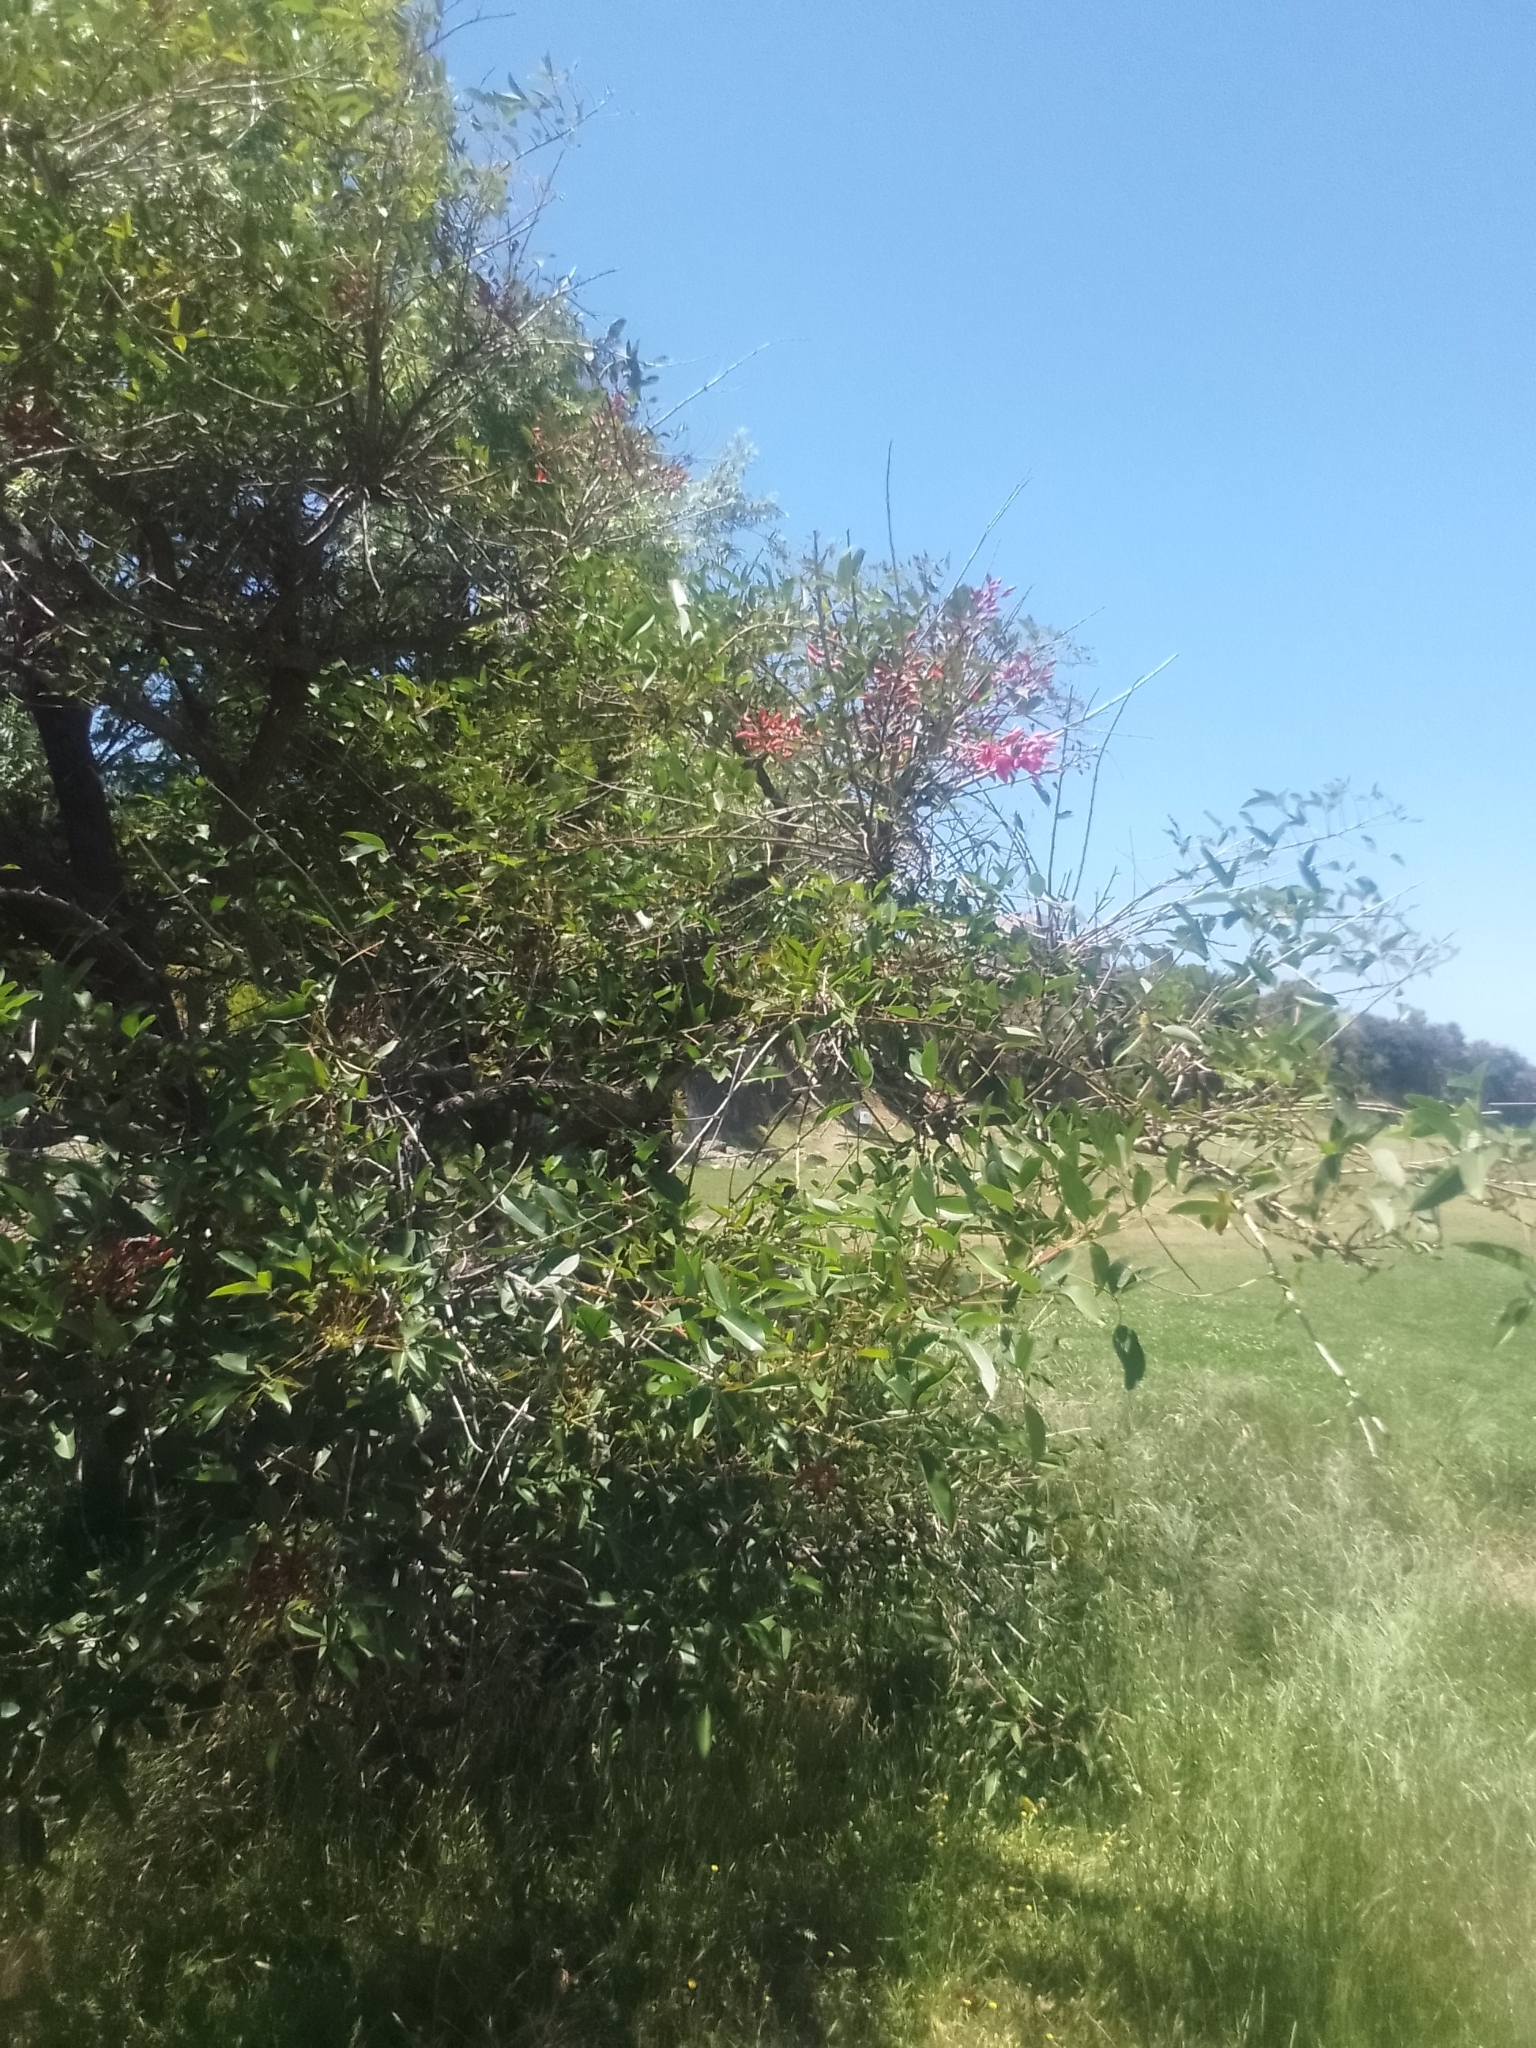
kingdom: Plantae
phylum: Tracheophyta
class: Magnoliopsida
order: Fabales
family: Fabaceae
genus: Erythrina
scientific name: Erythrina crista-galli
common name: Cockspur coral tree
